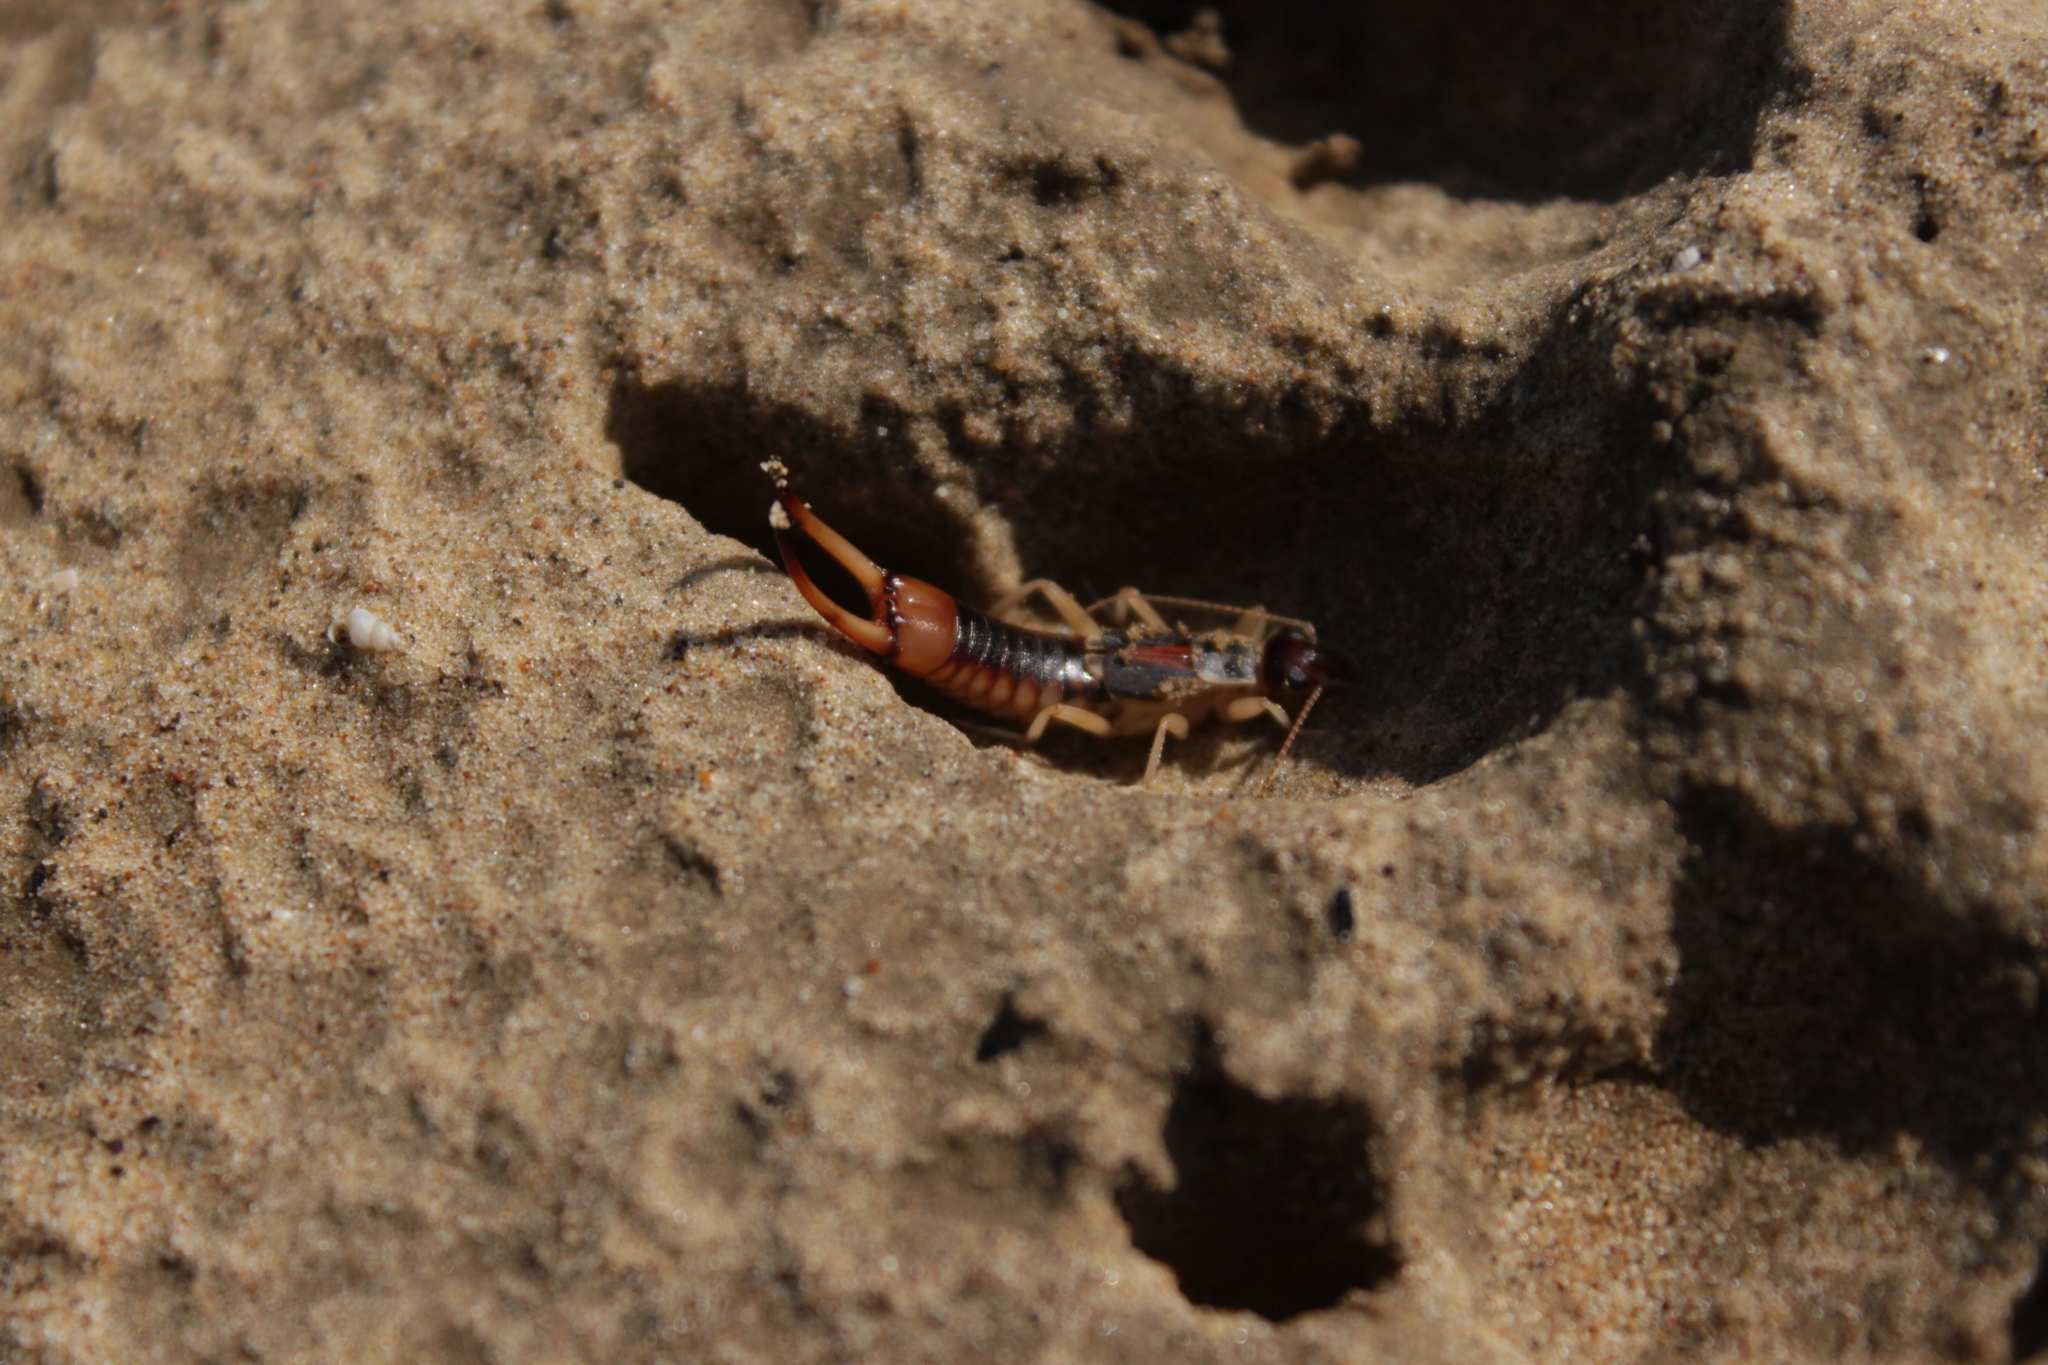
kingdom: Animalia
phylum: Arthropoda
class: Insecta
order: Dermaptera
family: Labiduridae
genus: Labidura
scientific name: Labidura riparia
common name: Striped earwig
